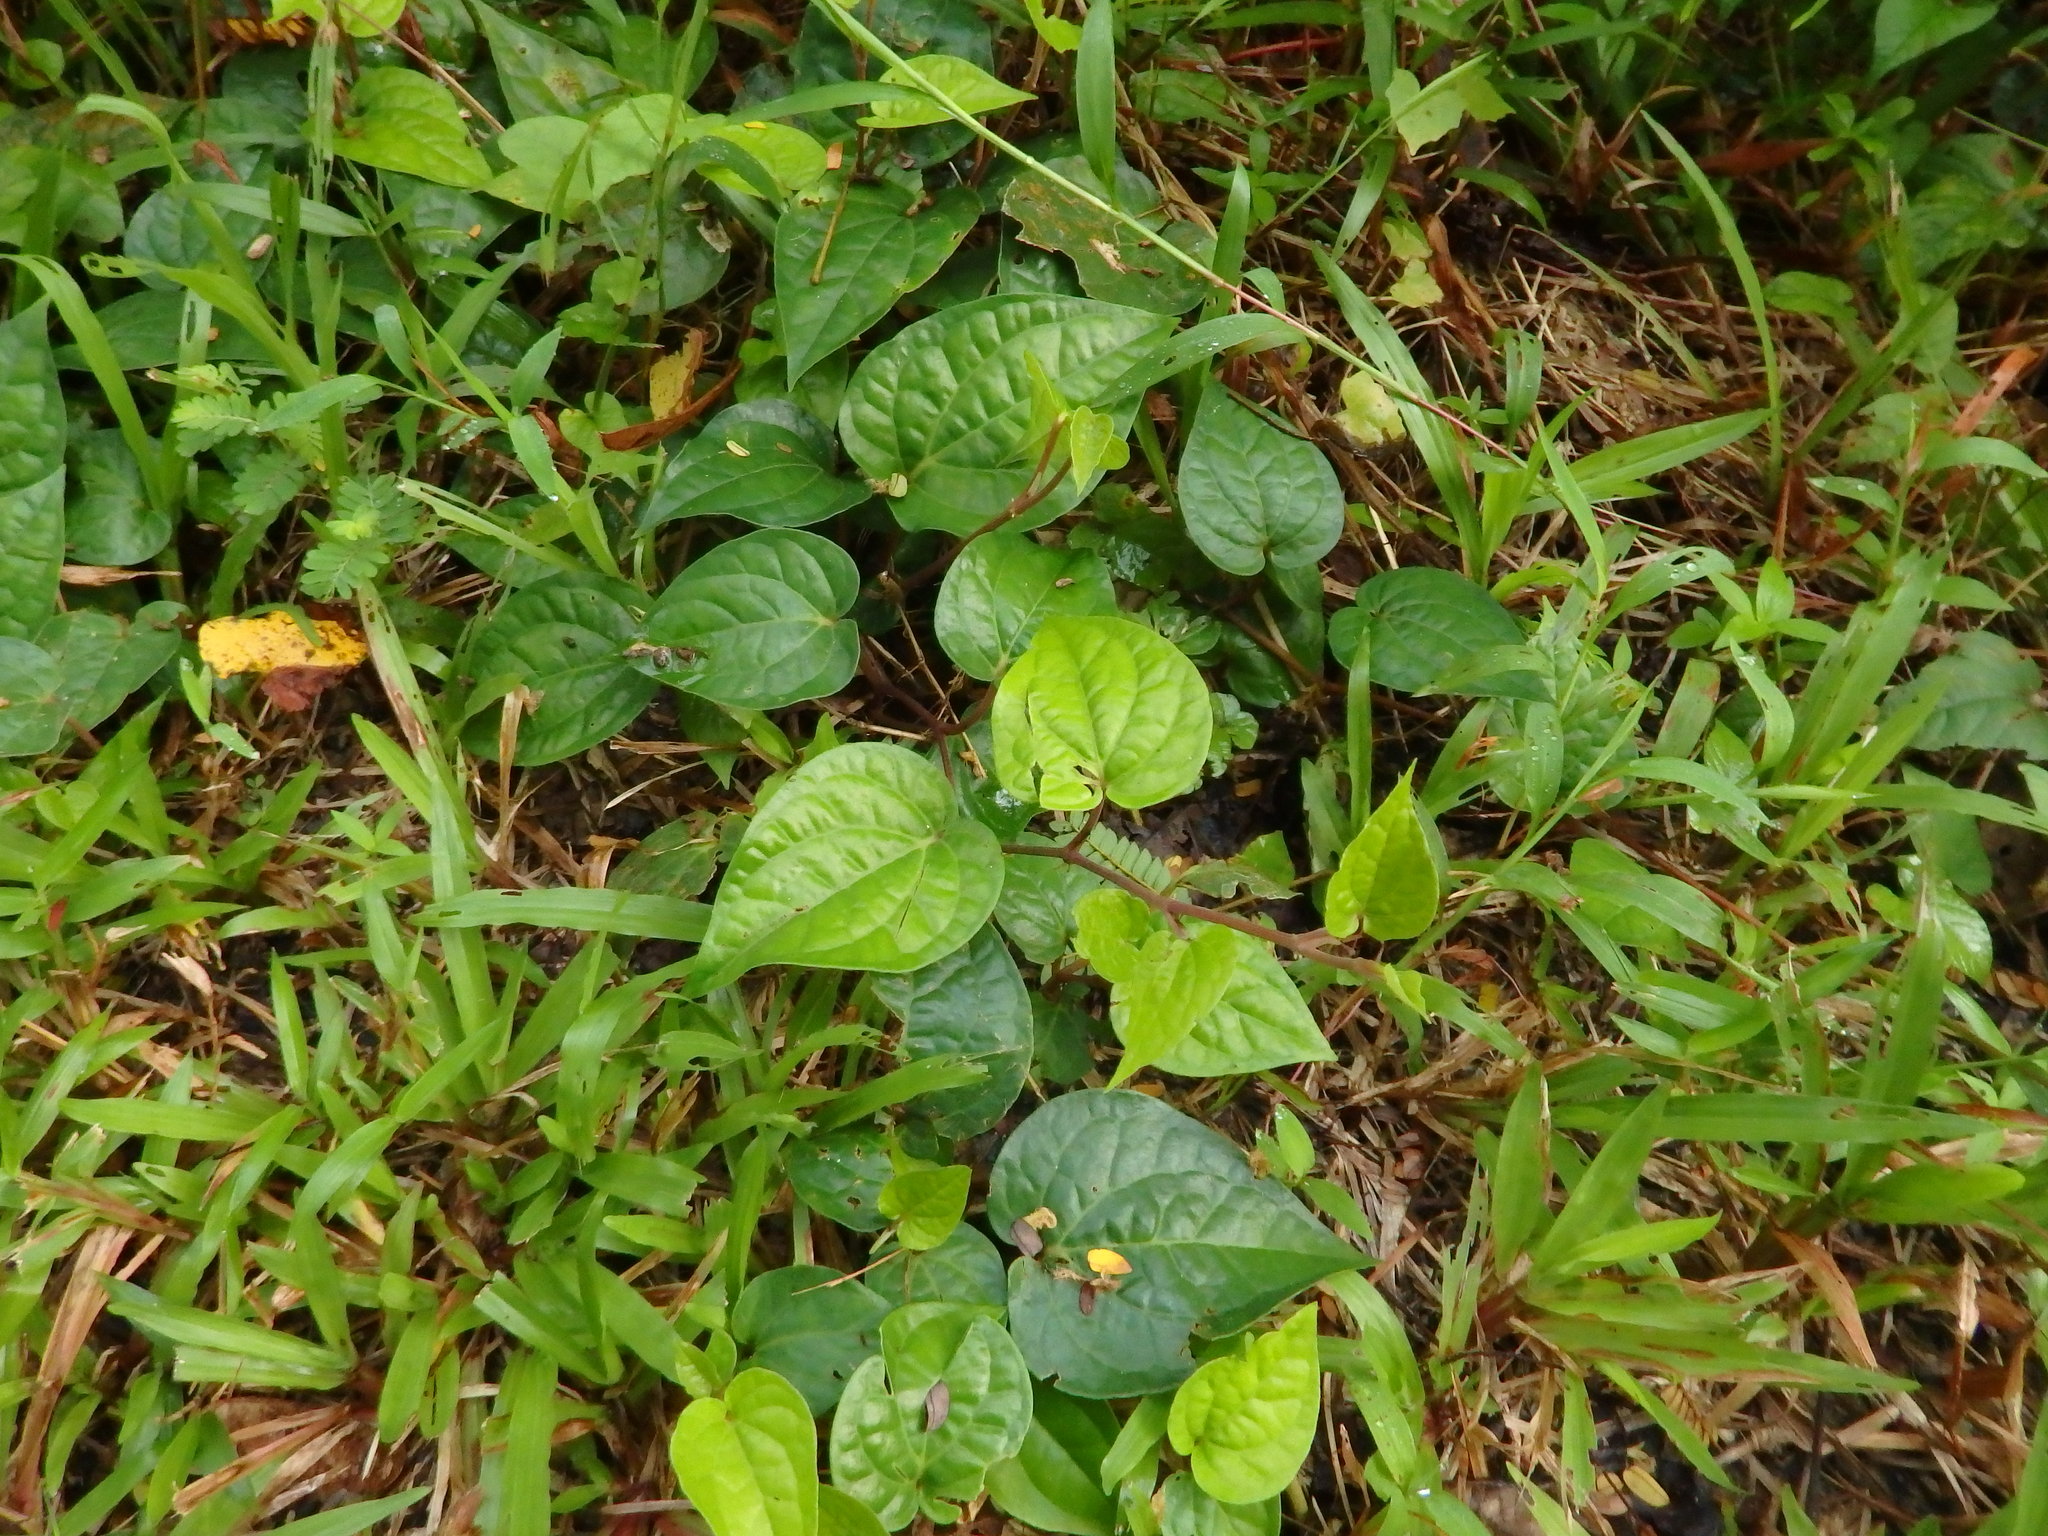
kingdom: Plantae
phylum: Tracheophyta
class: Magnoliopsida
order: Piperales
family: Piperaceae
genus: Piper
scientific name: Piper betle
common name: Betel pepper
